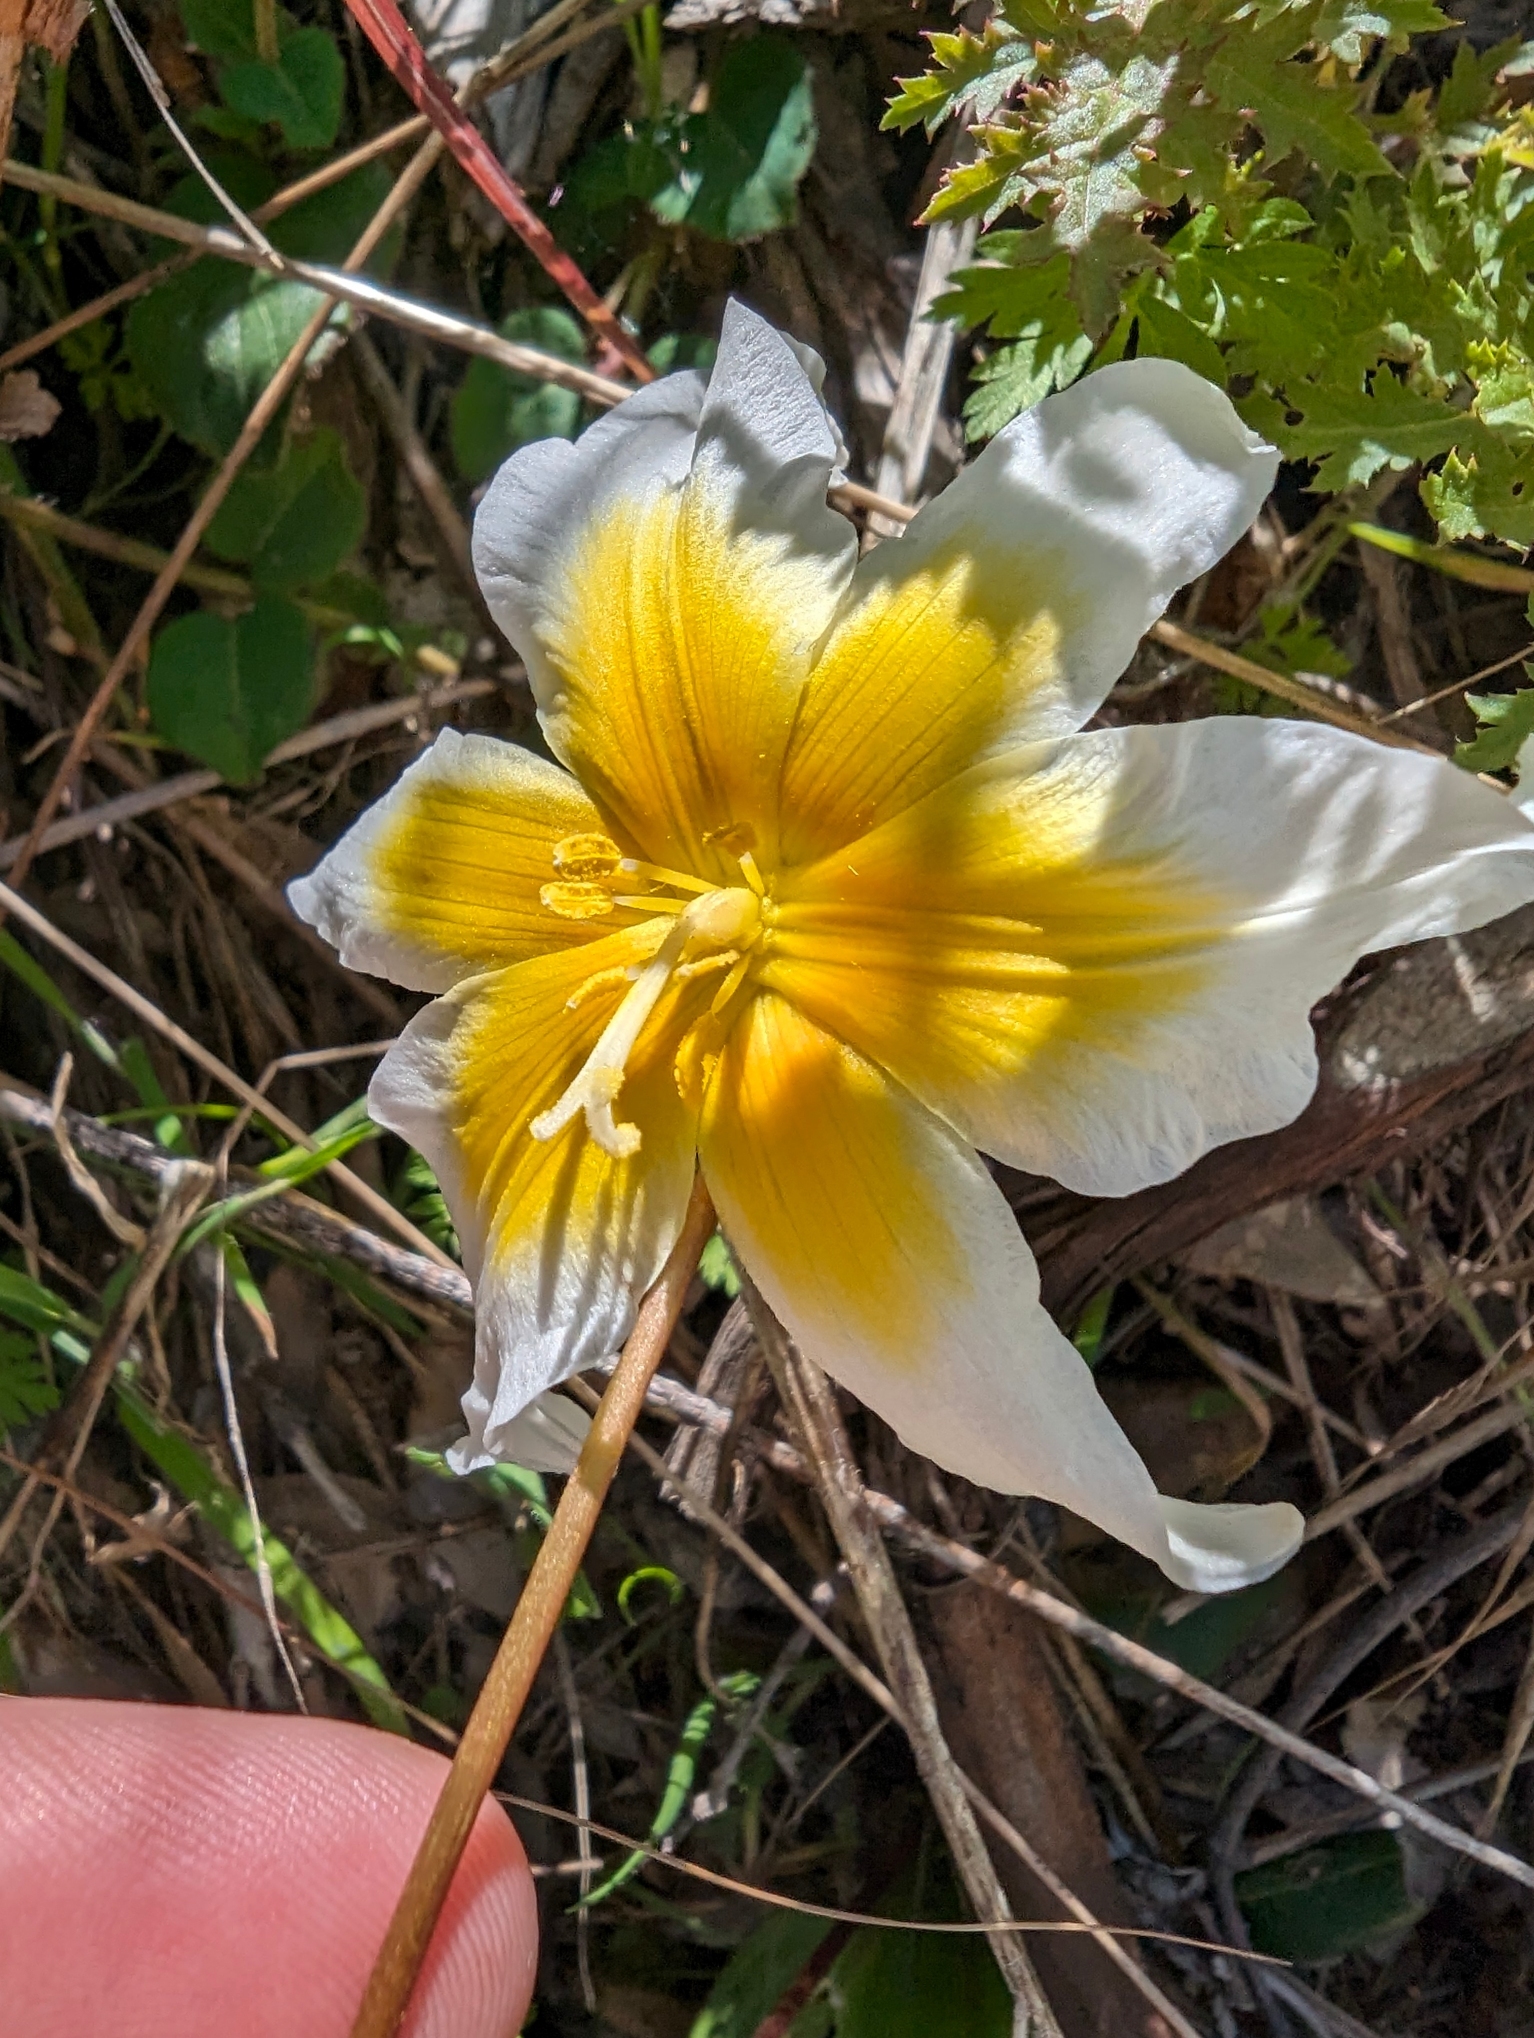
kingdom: Plantae
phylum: Tracheophyta
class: Liliopsida
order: Liliales
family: Liliaceae
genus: Erythronium
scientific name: Erythronium helenae
